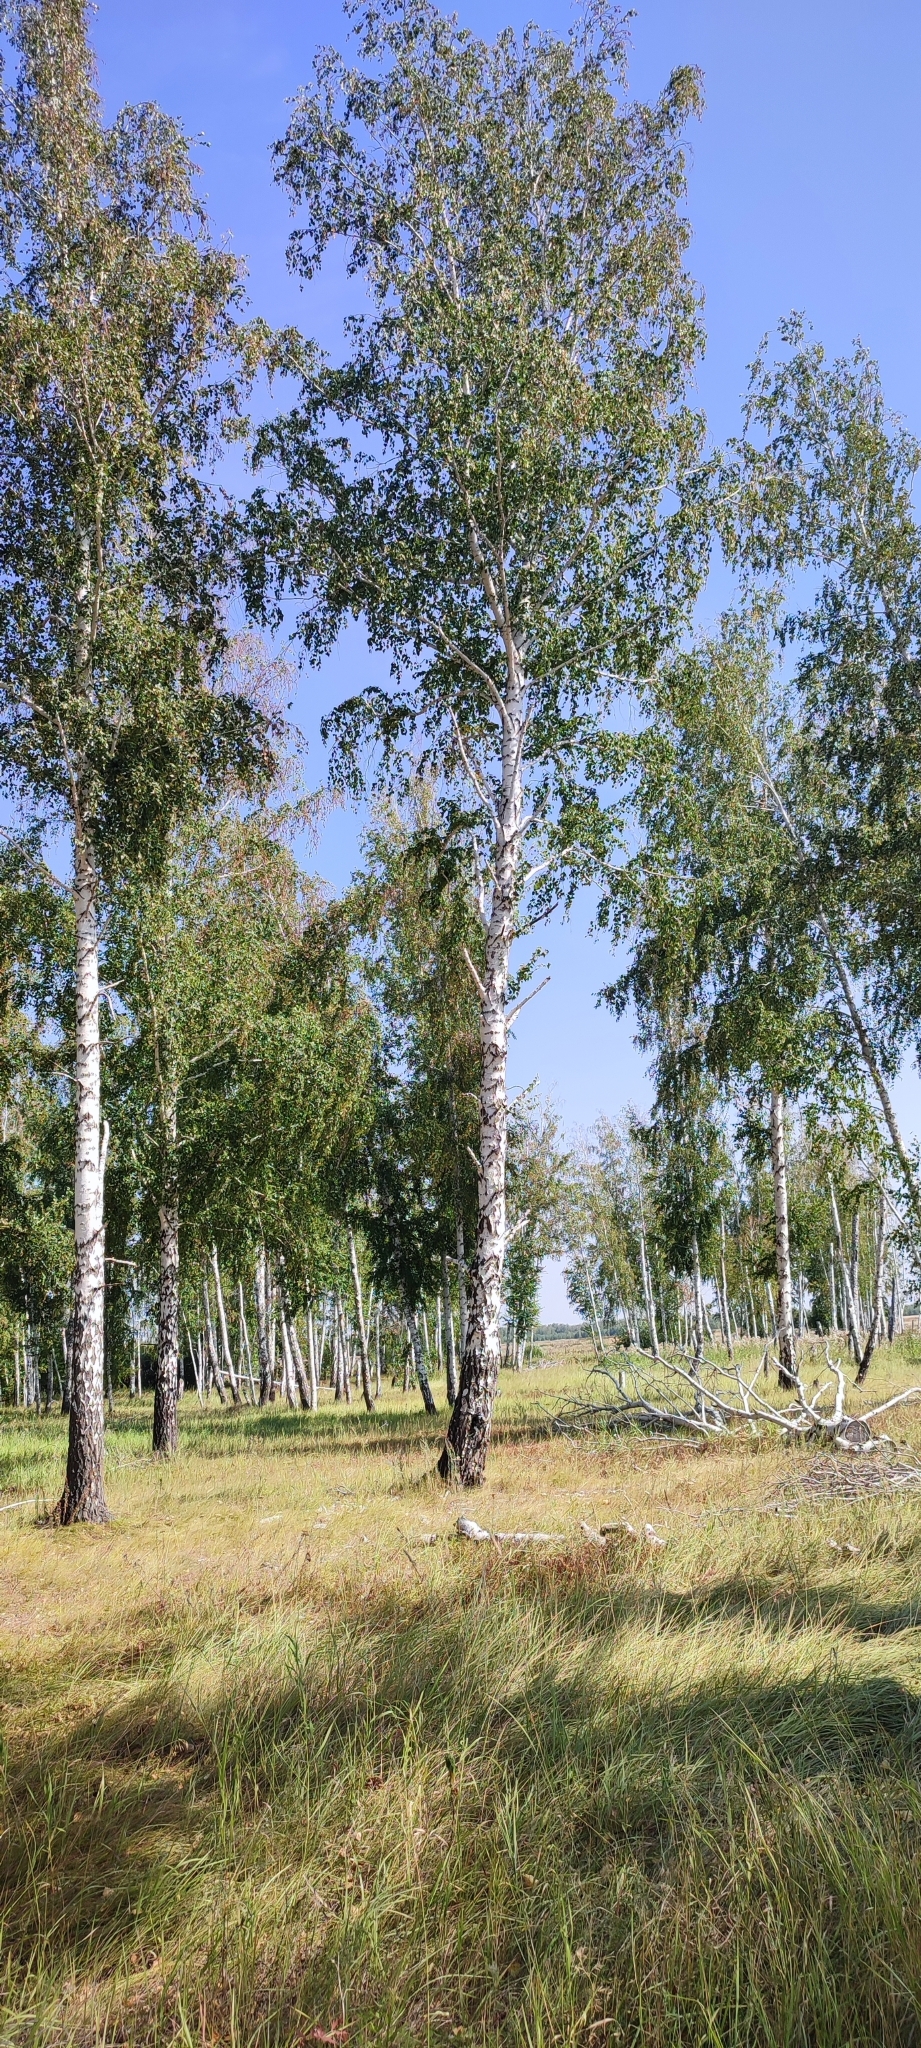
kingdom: Plantae
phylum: Tracheophyta
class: Magnoliopsida
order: Fagales
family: Betulaceae
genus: Betula
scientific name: Betula pendula
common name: Silver birch
